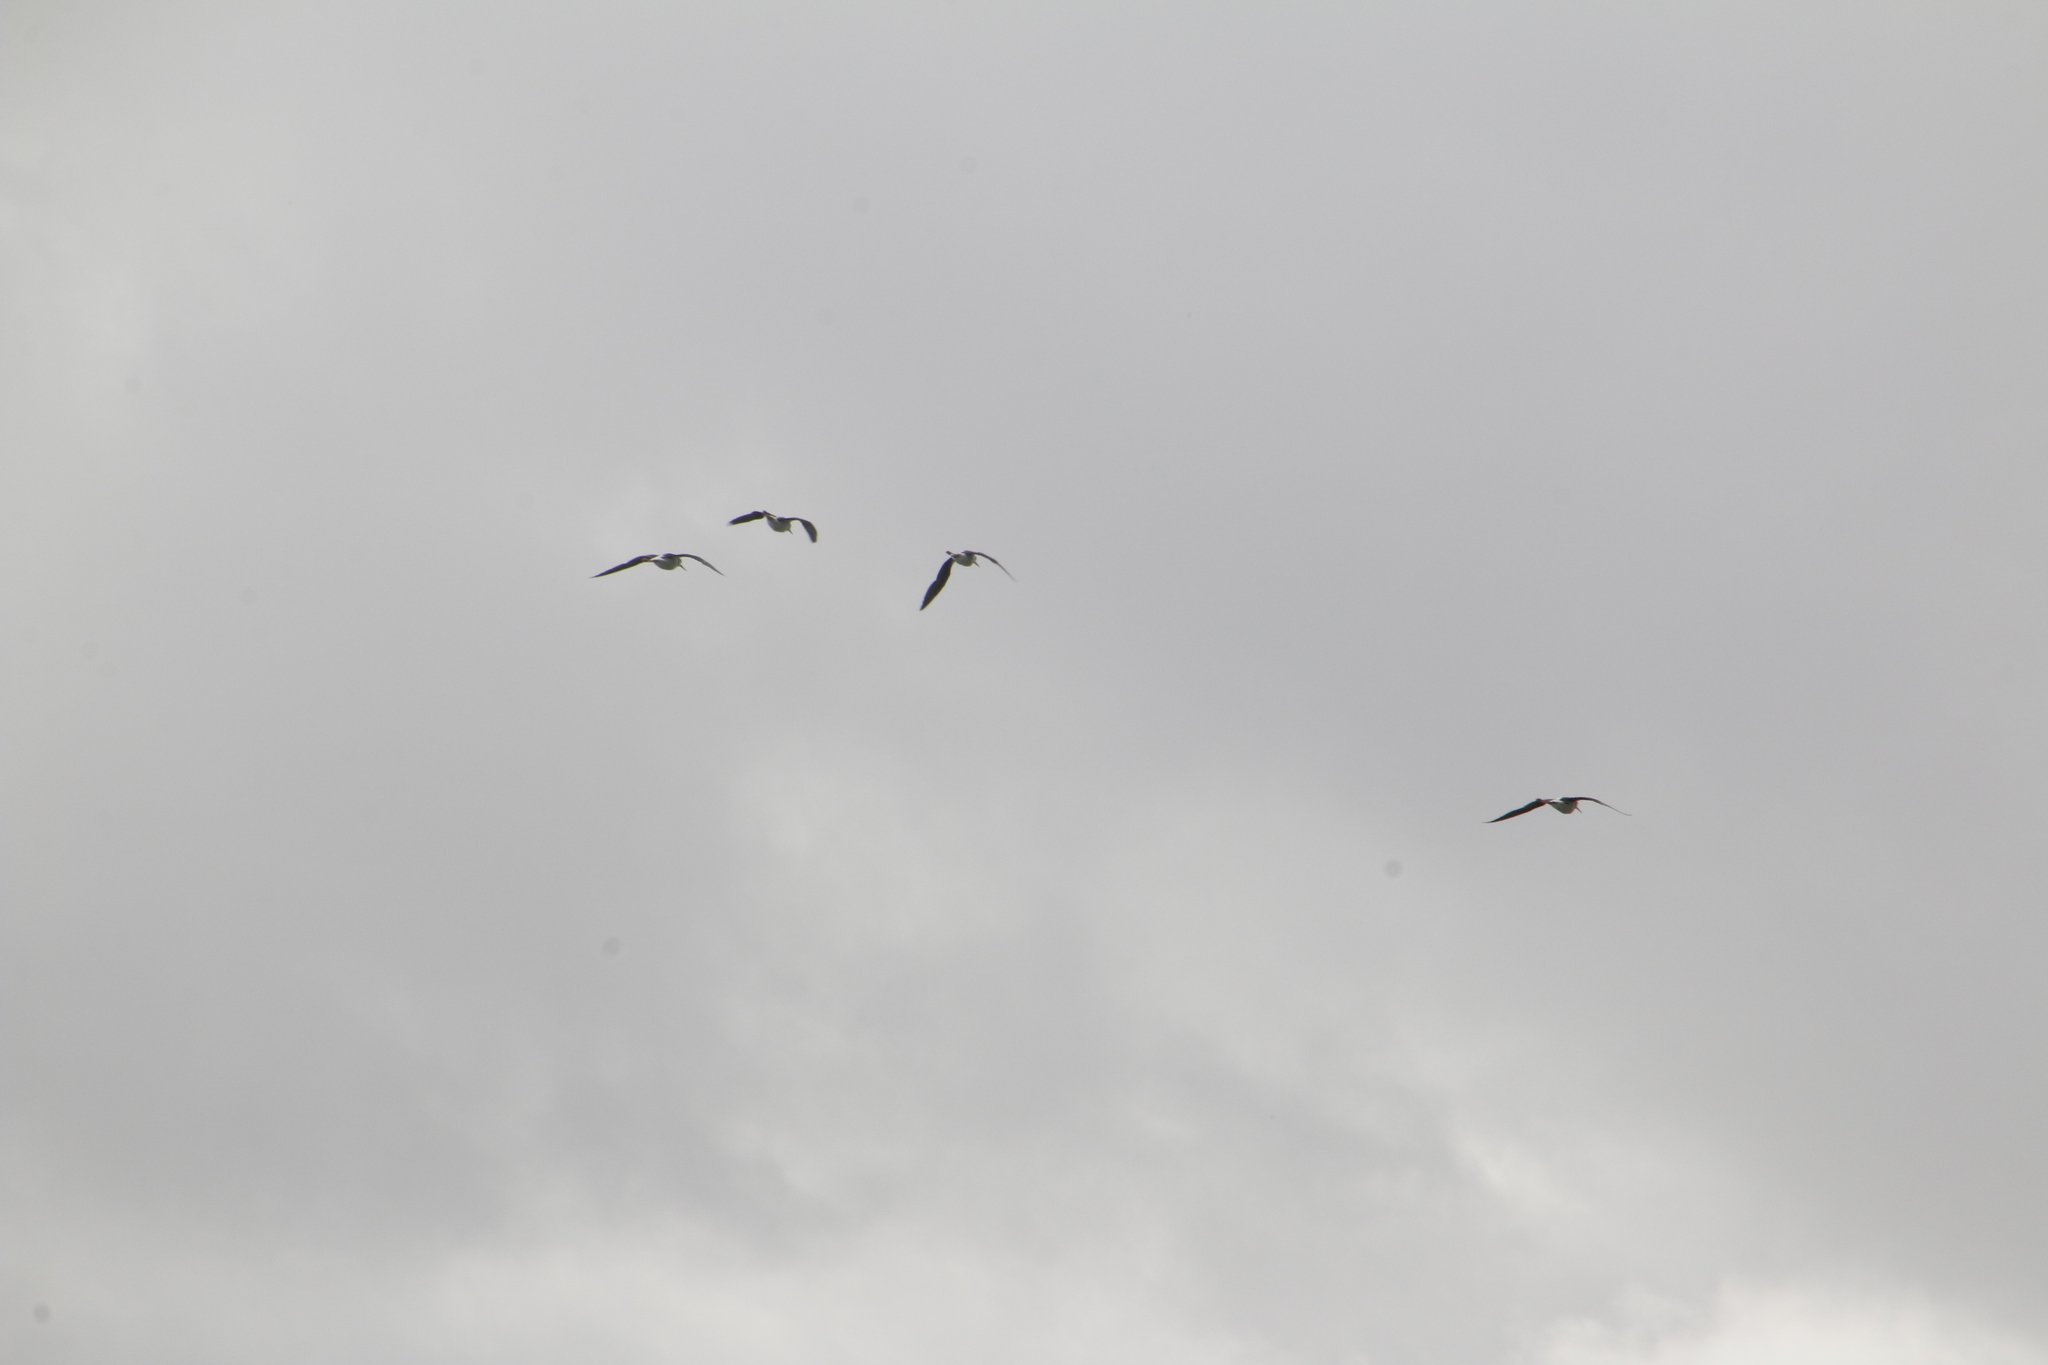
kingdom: Animalia
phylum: Chordata
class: Aves
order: Charadriiformes
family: Recurvirostridae
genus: Himantopus
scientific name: Himantopus leucocephalus
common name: White-headed stilt
